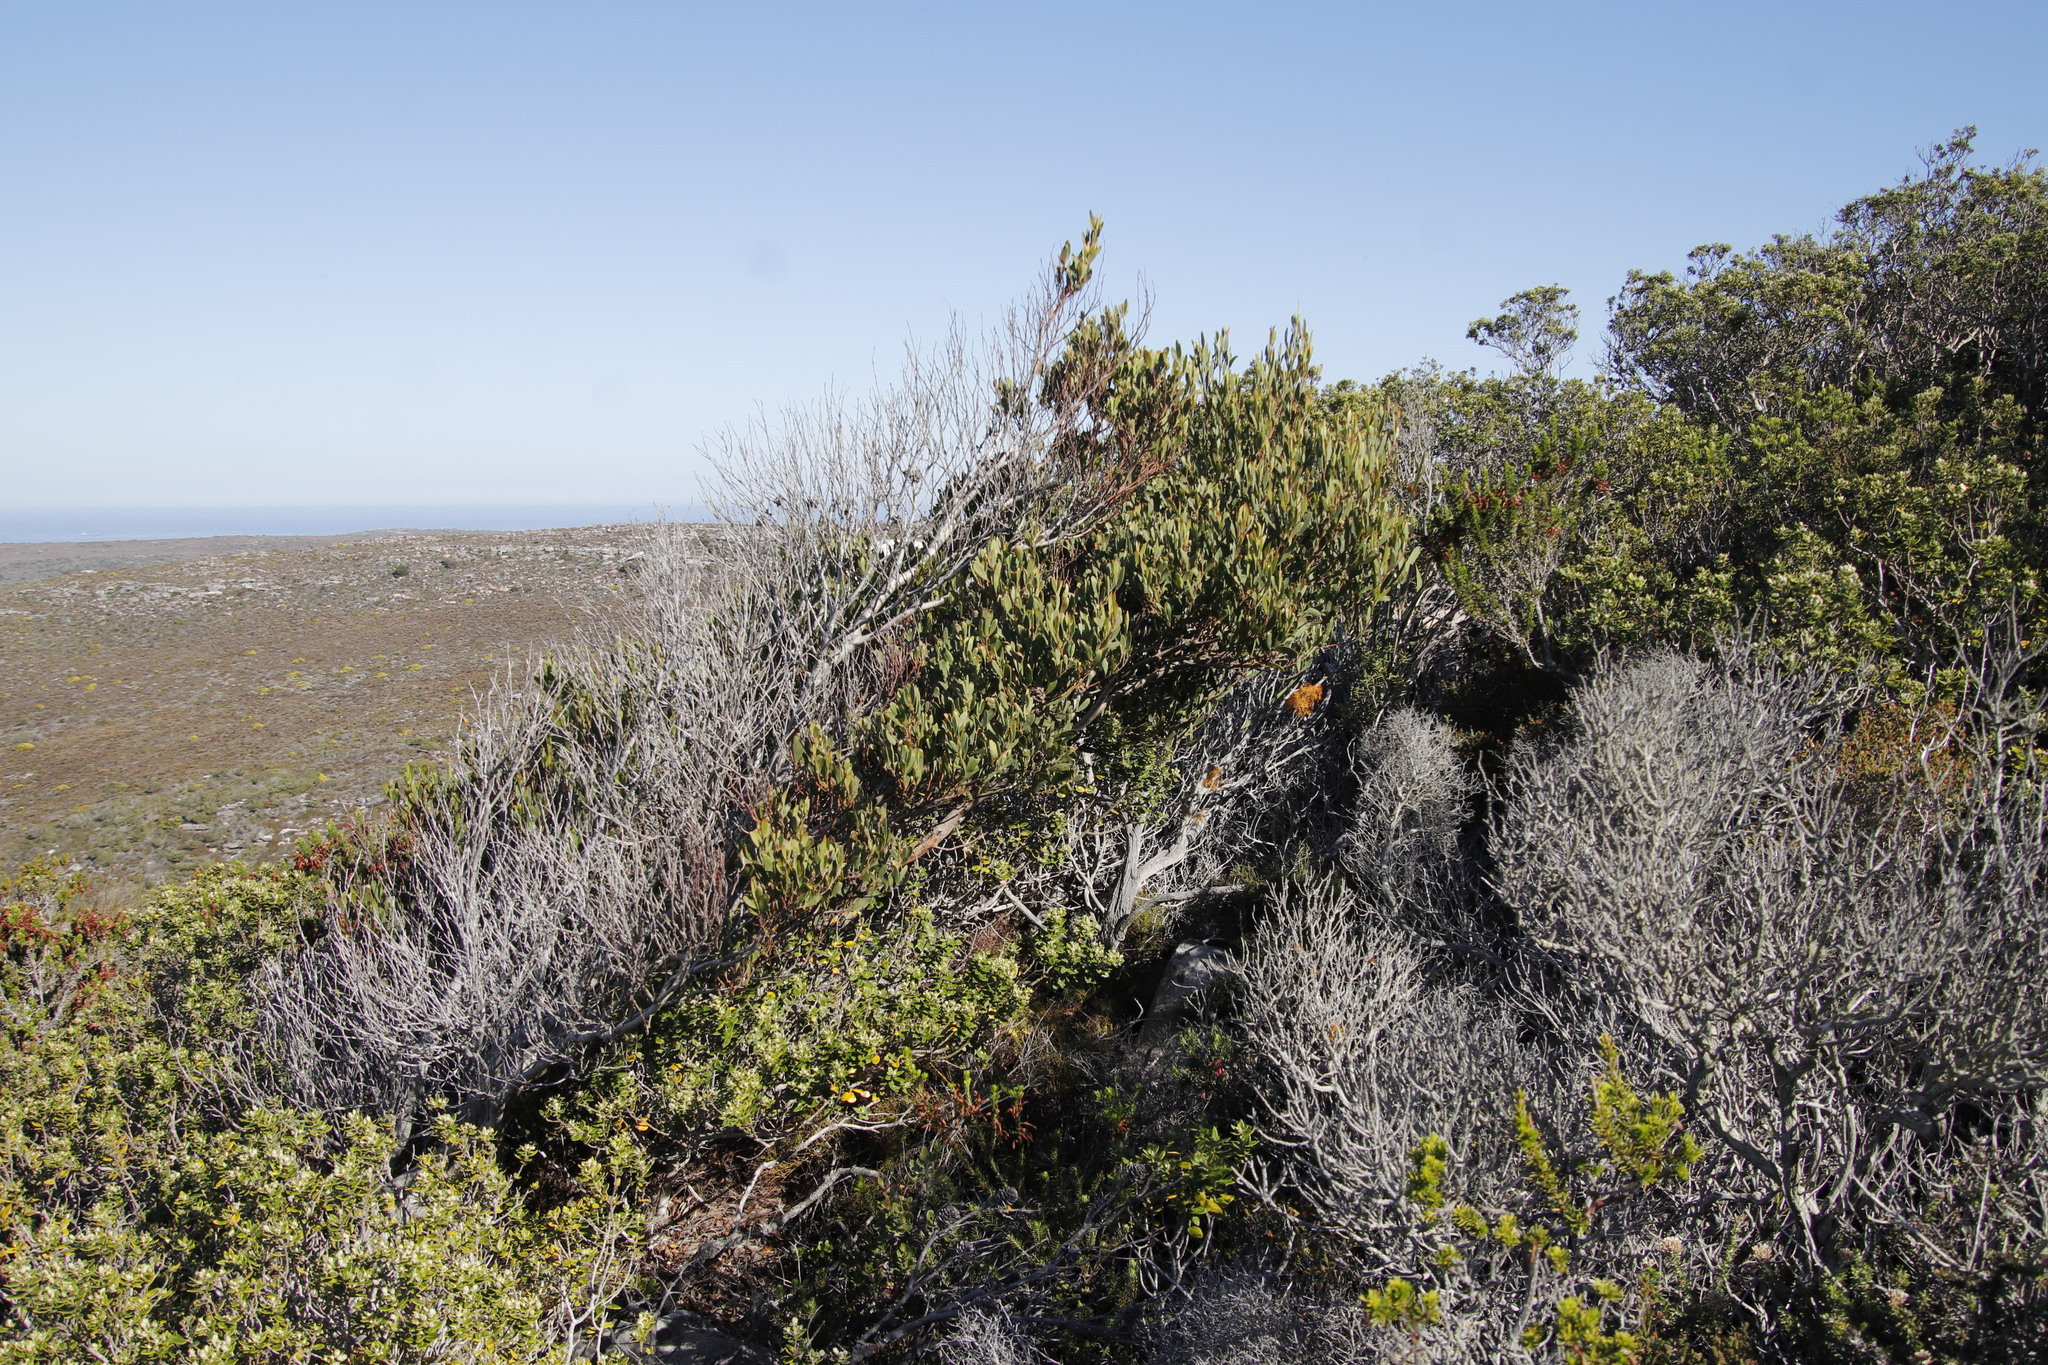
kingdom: Plantae
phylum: Tracheophyta
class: Magnoliopsida
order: Fabales
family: Fabaceae
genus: Acacia
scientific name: Acacia cyclops
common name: Coastal wattle
